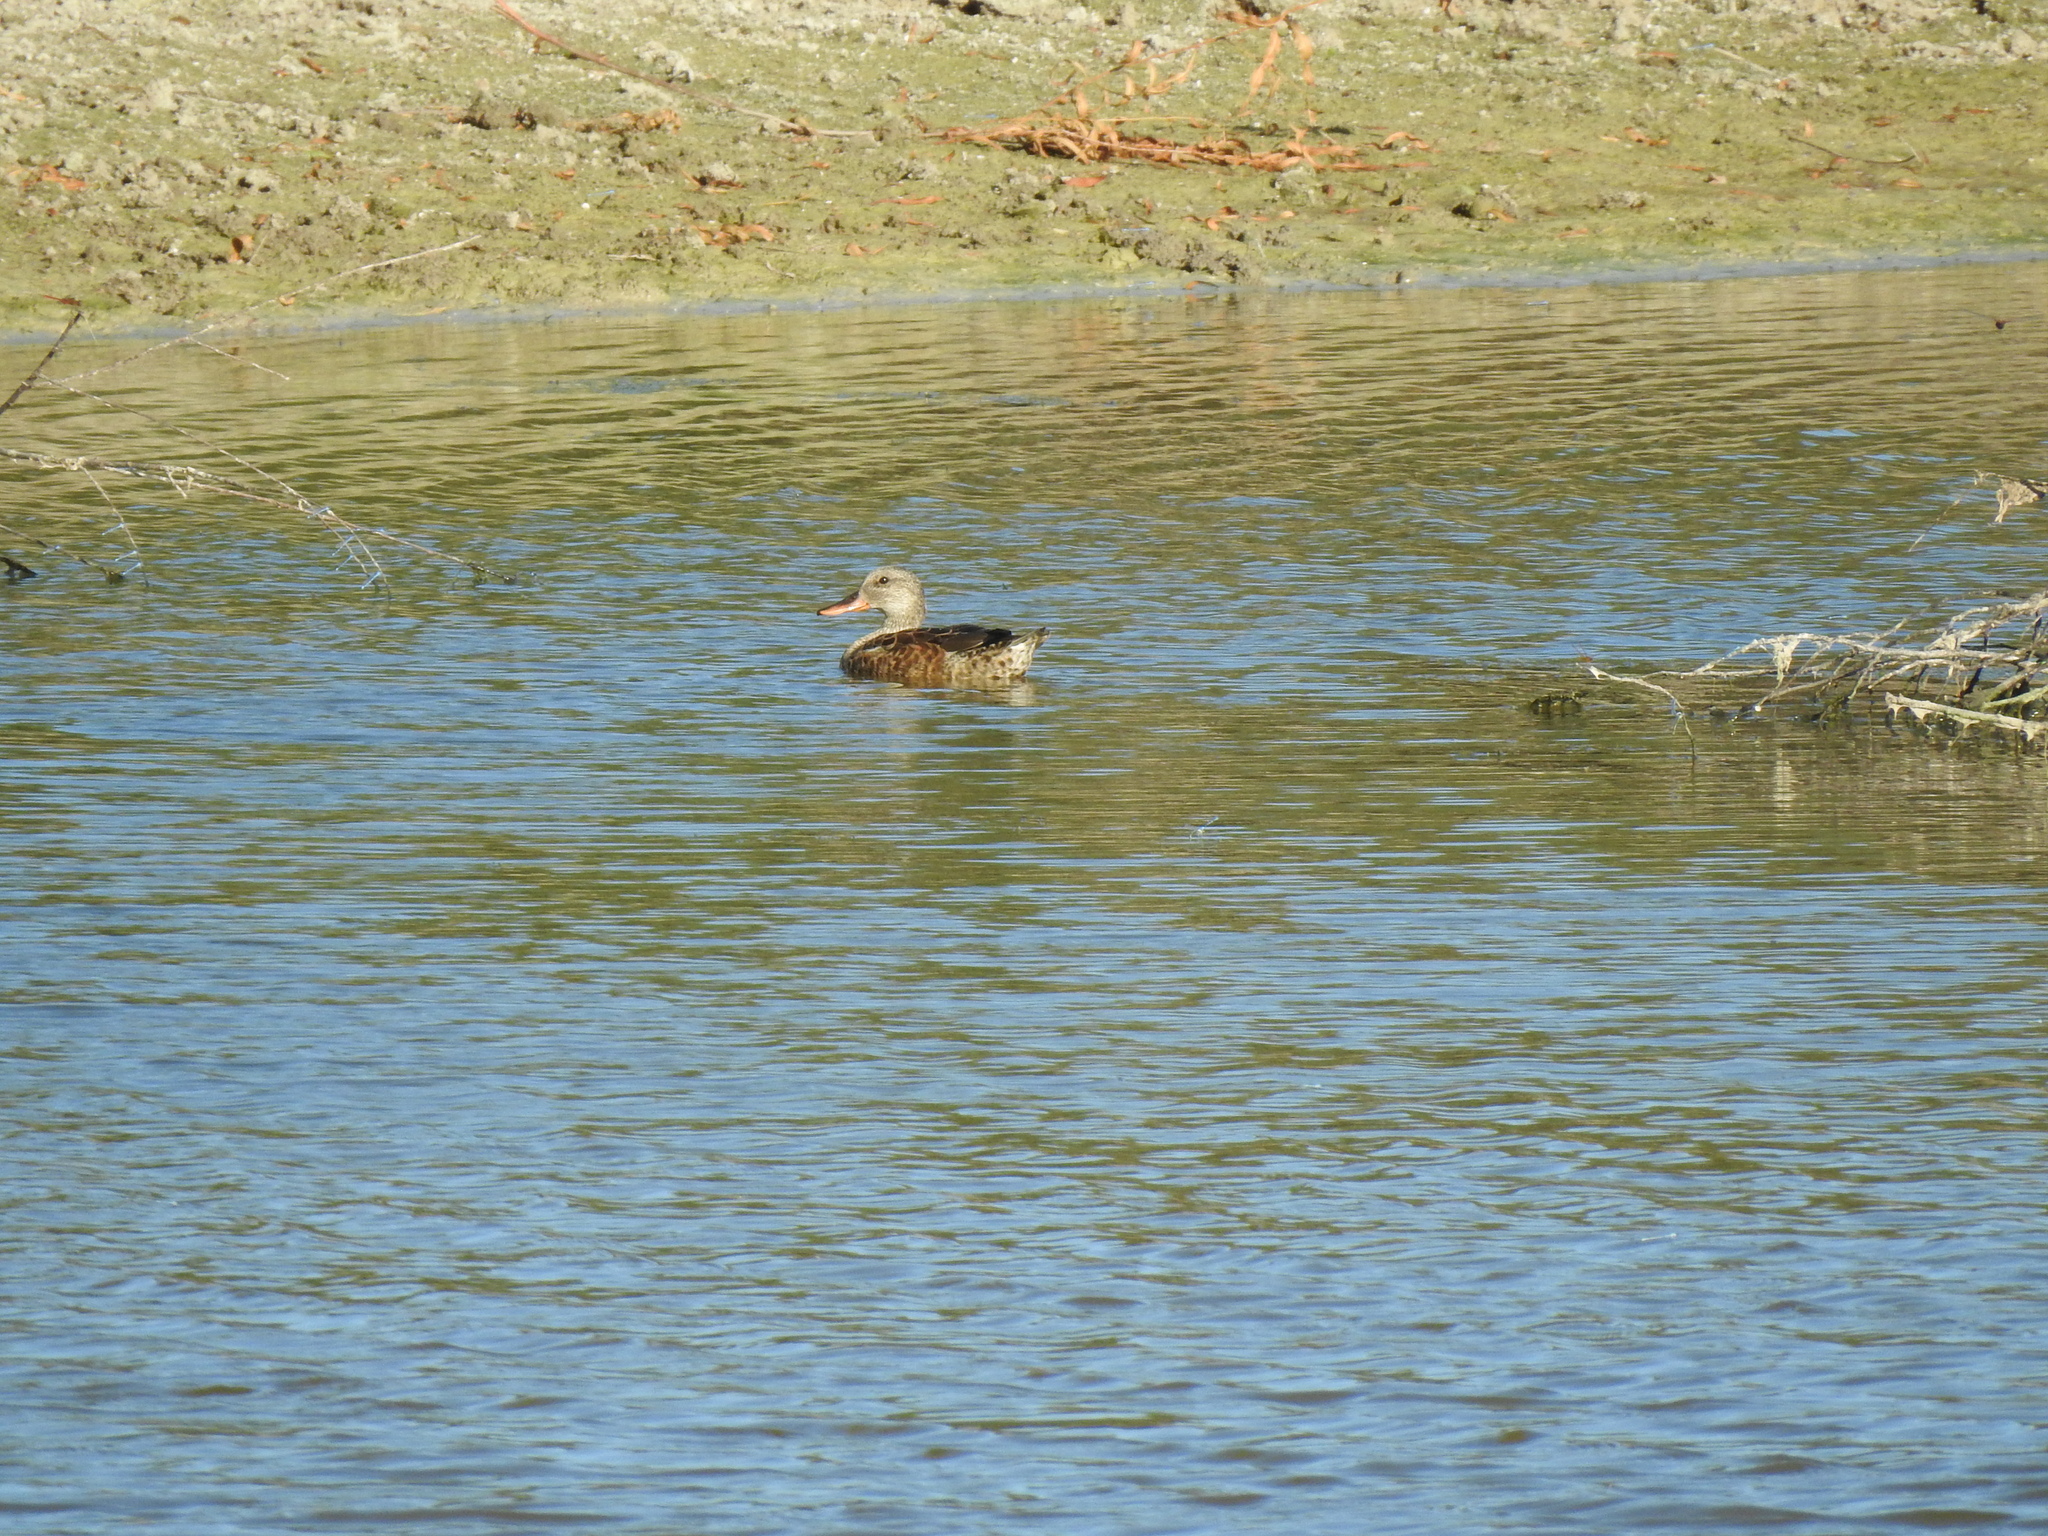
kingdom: Animalia
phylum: Chordata
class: Aves
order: Anseriformes
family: Anatidae
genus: Anas
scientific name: Anas platyrhynchos
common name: Mallard
